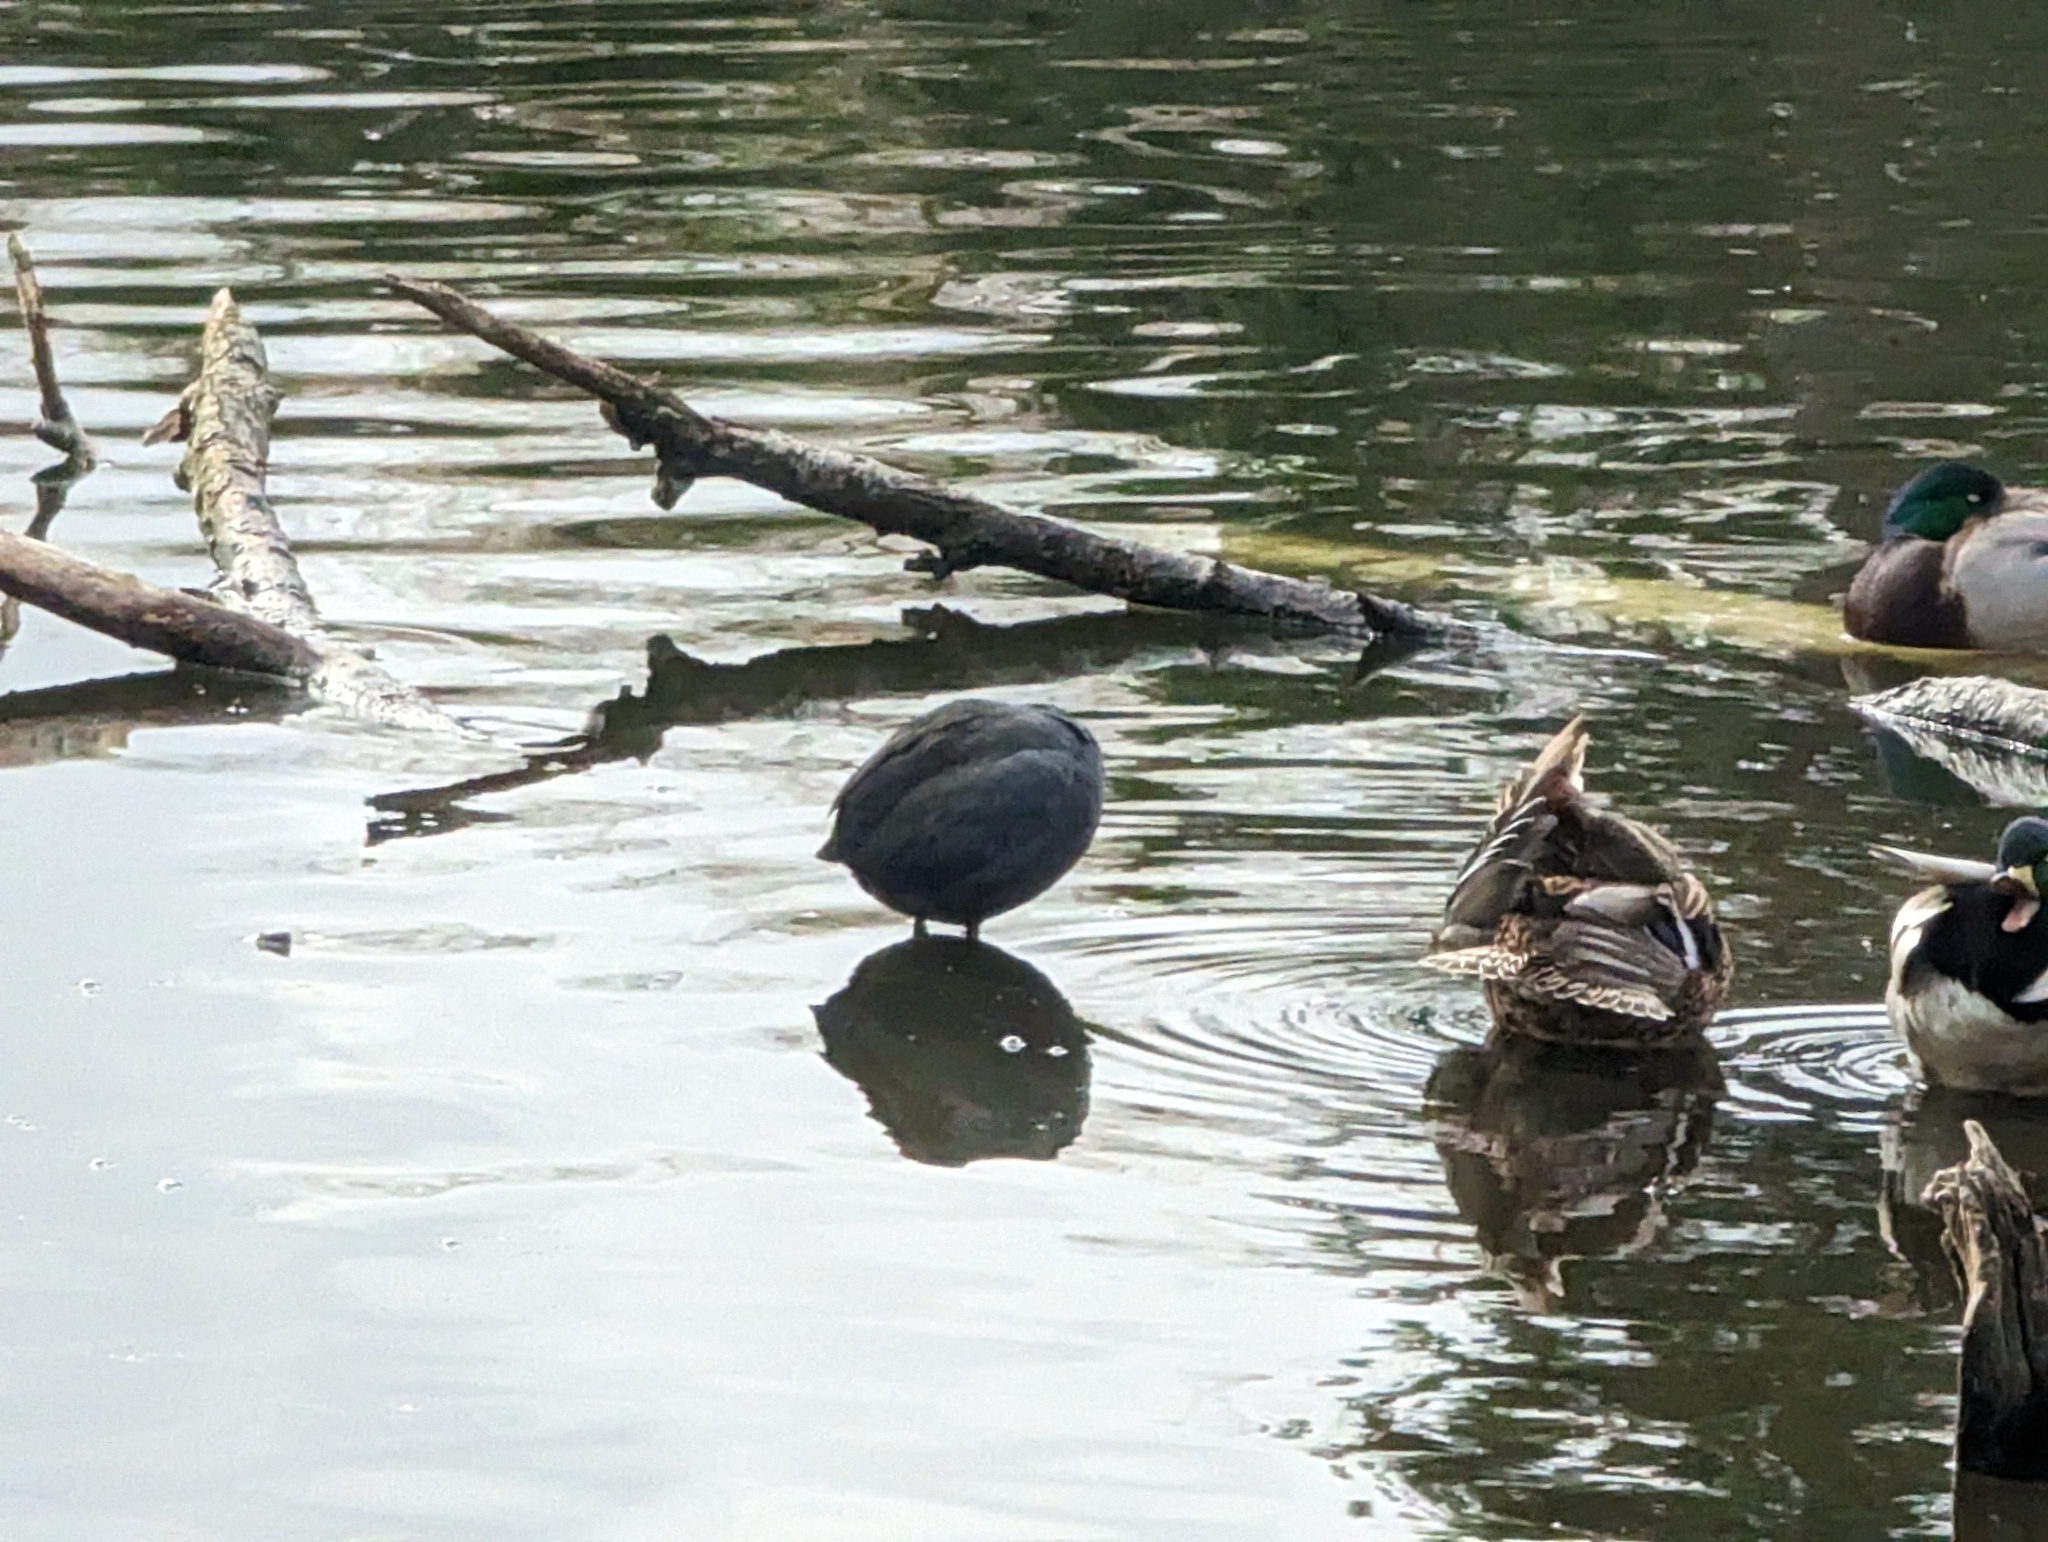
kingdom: Animalia
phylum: Chordata
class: Aves
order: Gruiformes
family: Rallidae
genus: Fulica
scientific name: Fulica americana
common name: American coot
